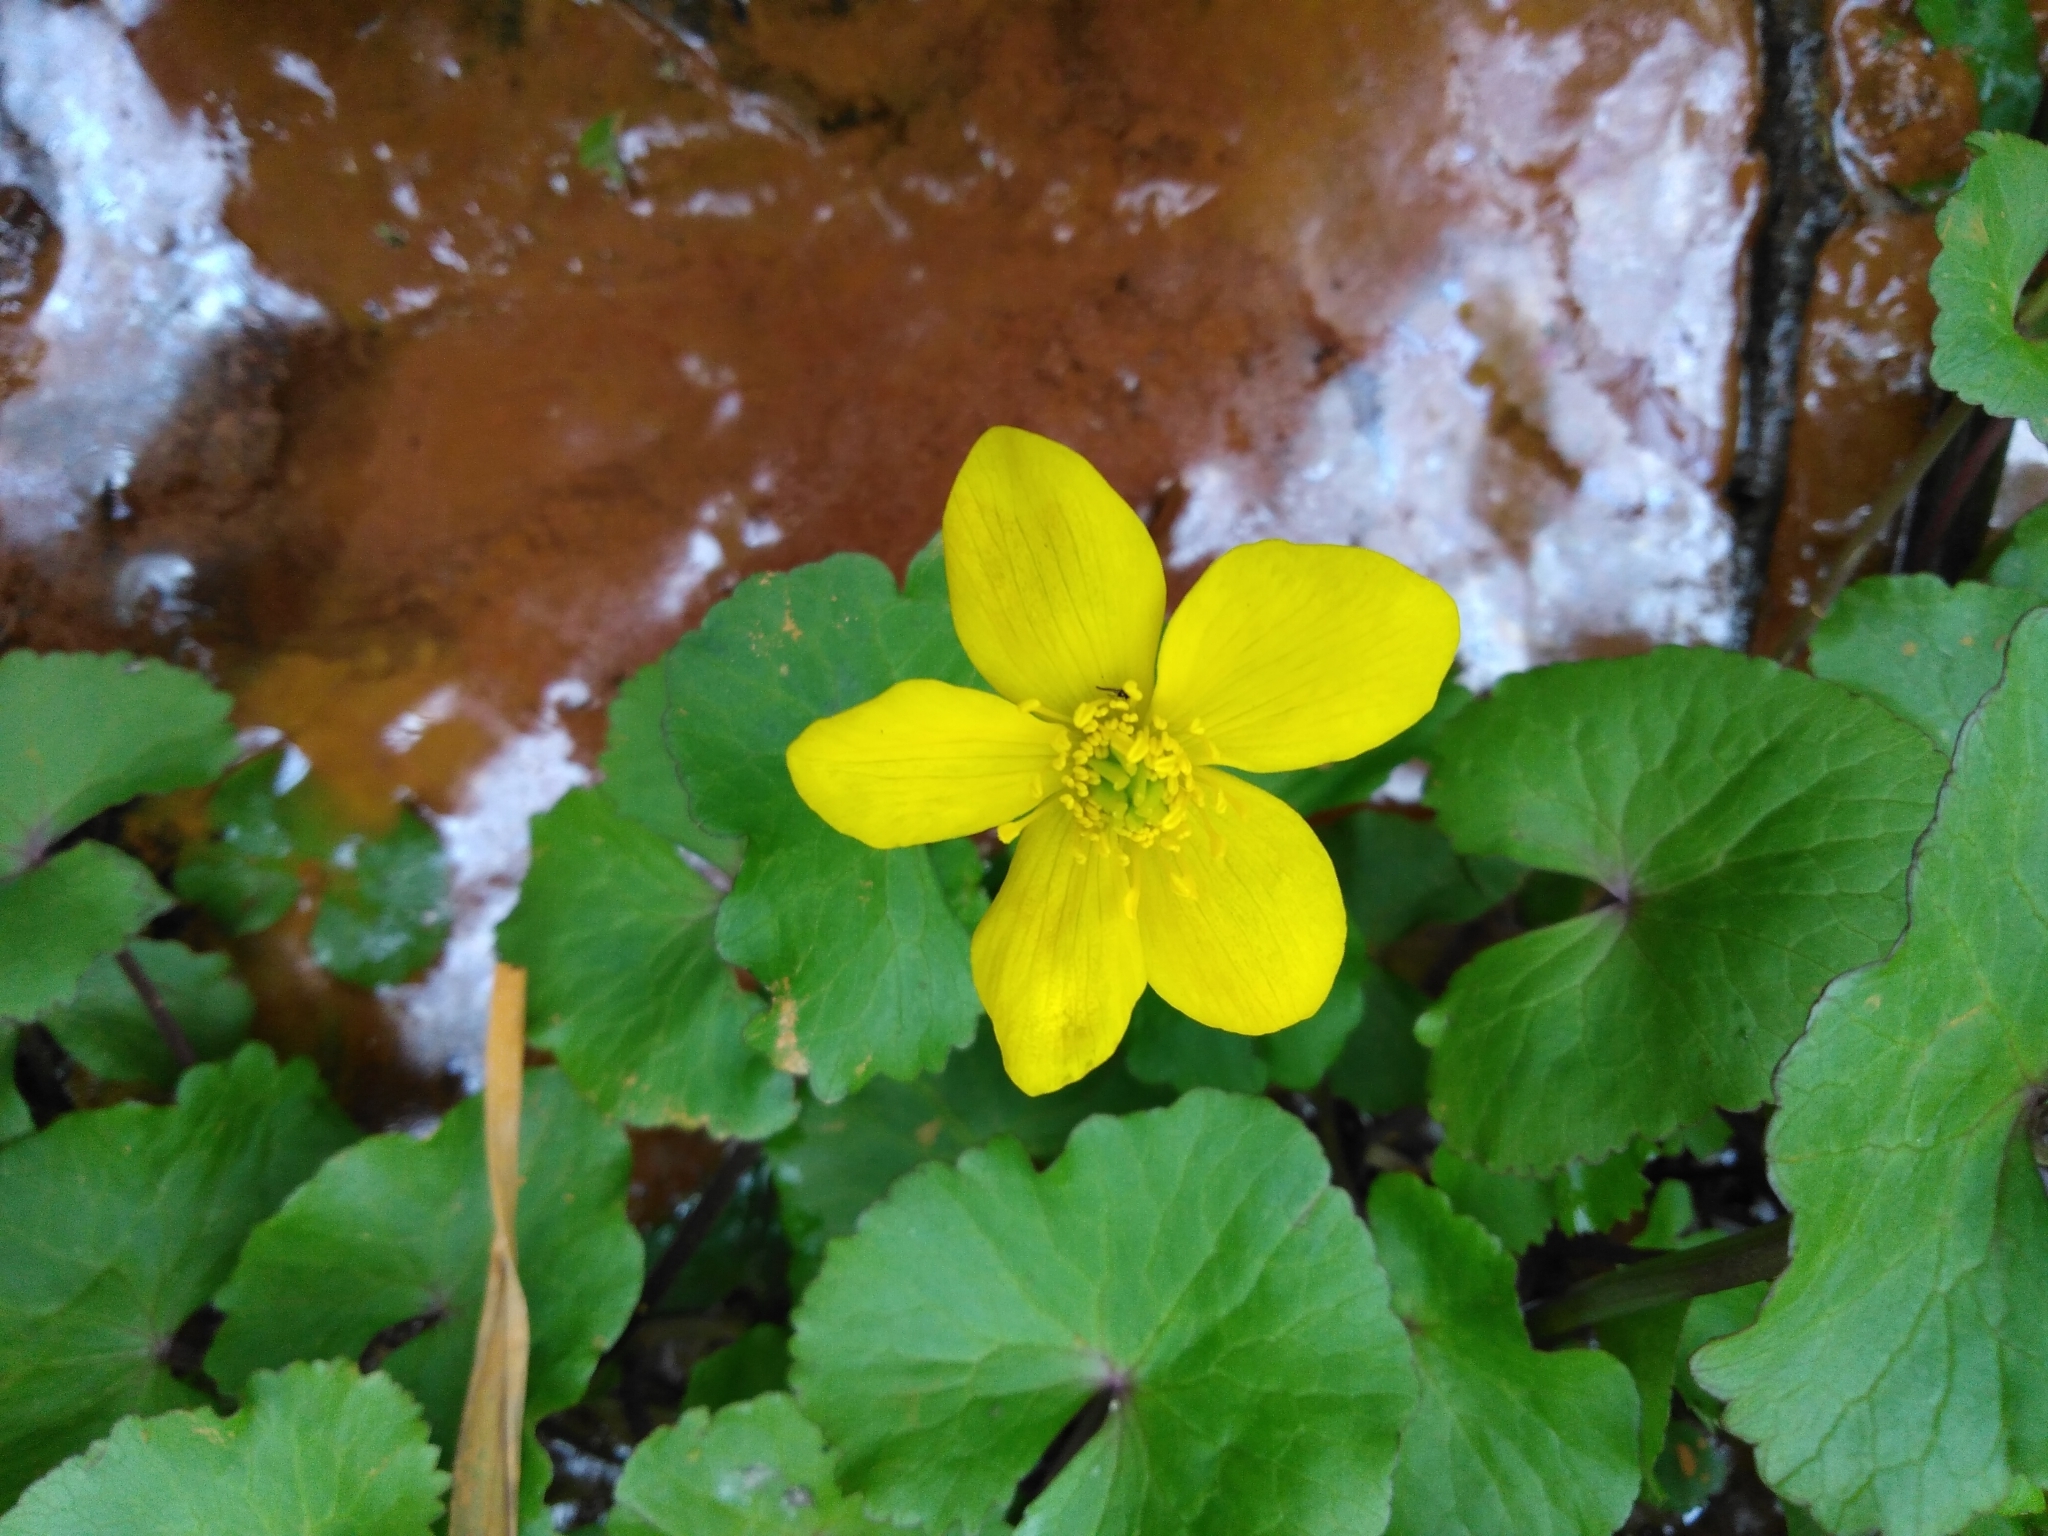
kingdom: Plantae
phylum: Tracheophyta
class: Magnoliopsida
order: Ranunculales
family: Ranunculaceae
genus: Caltha
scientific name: Caltha palustris
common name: Marsh marigold
